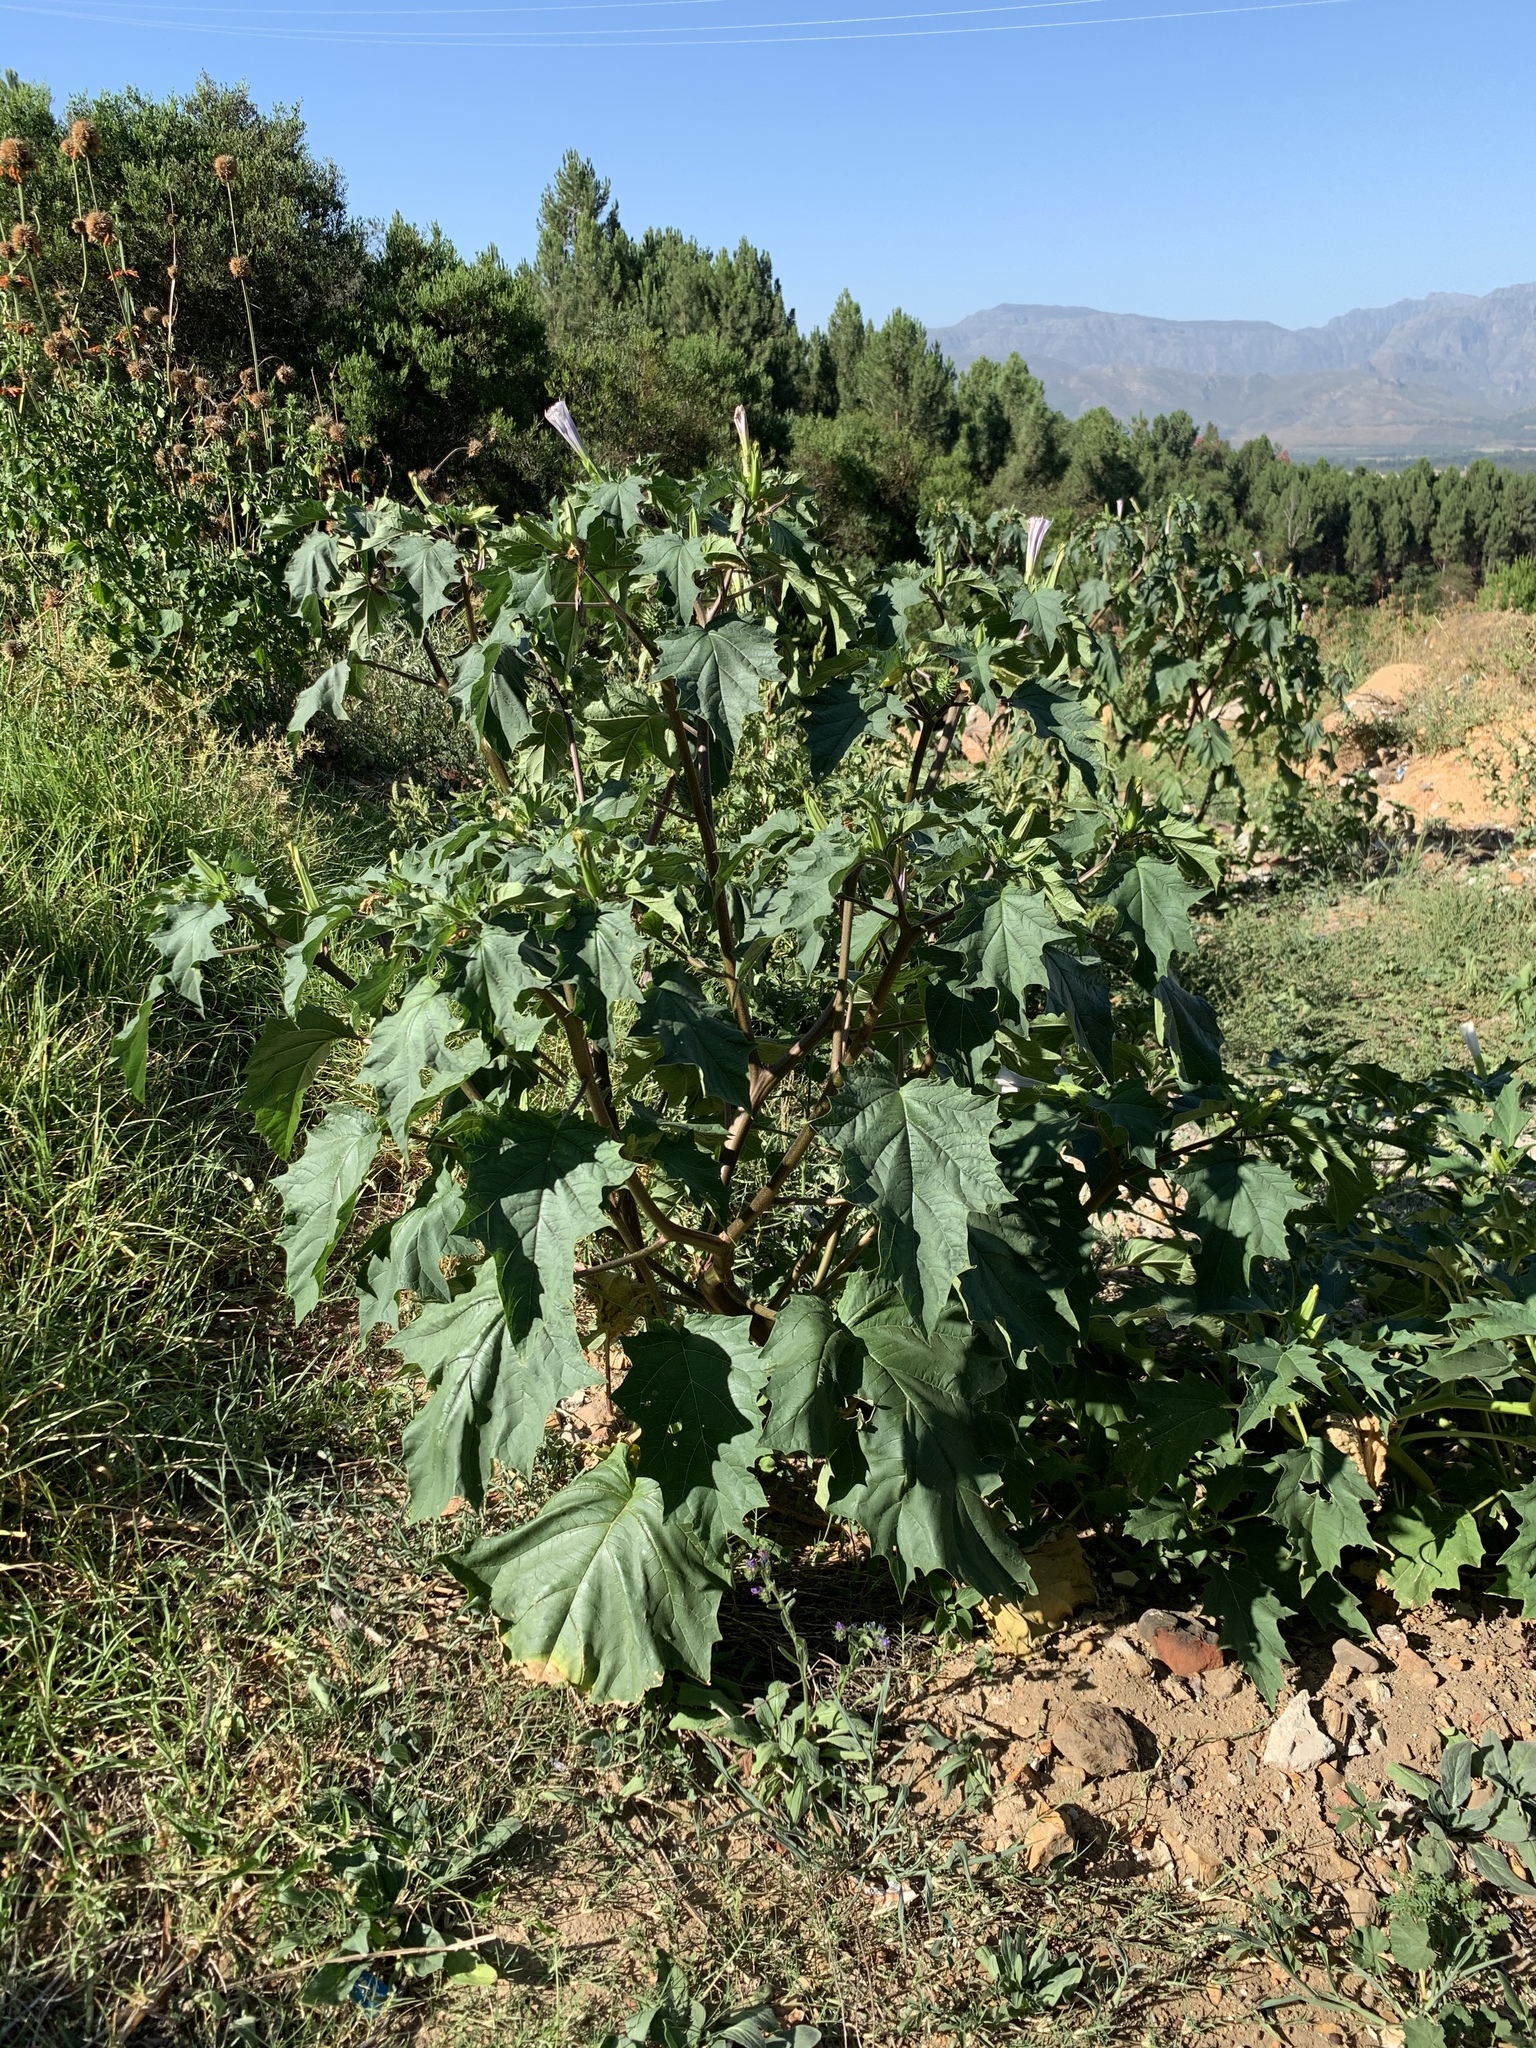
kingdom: Plantae
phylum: Tracheophyta
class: Magnoliopsida
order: Solanales
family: Solanaceae
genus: Datura
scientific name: Datura stramonium
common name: Thorn-apple
